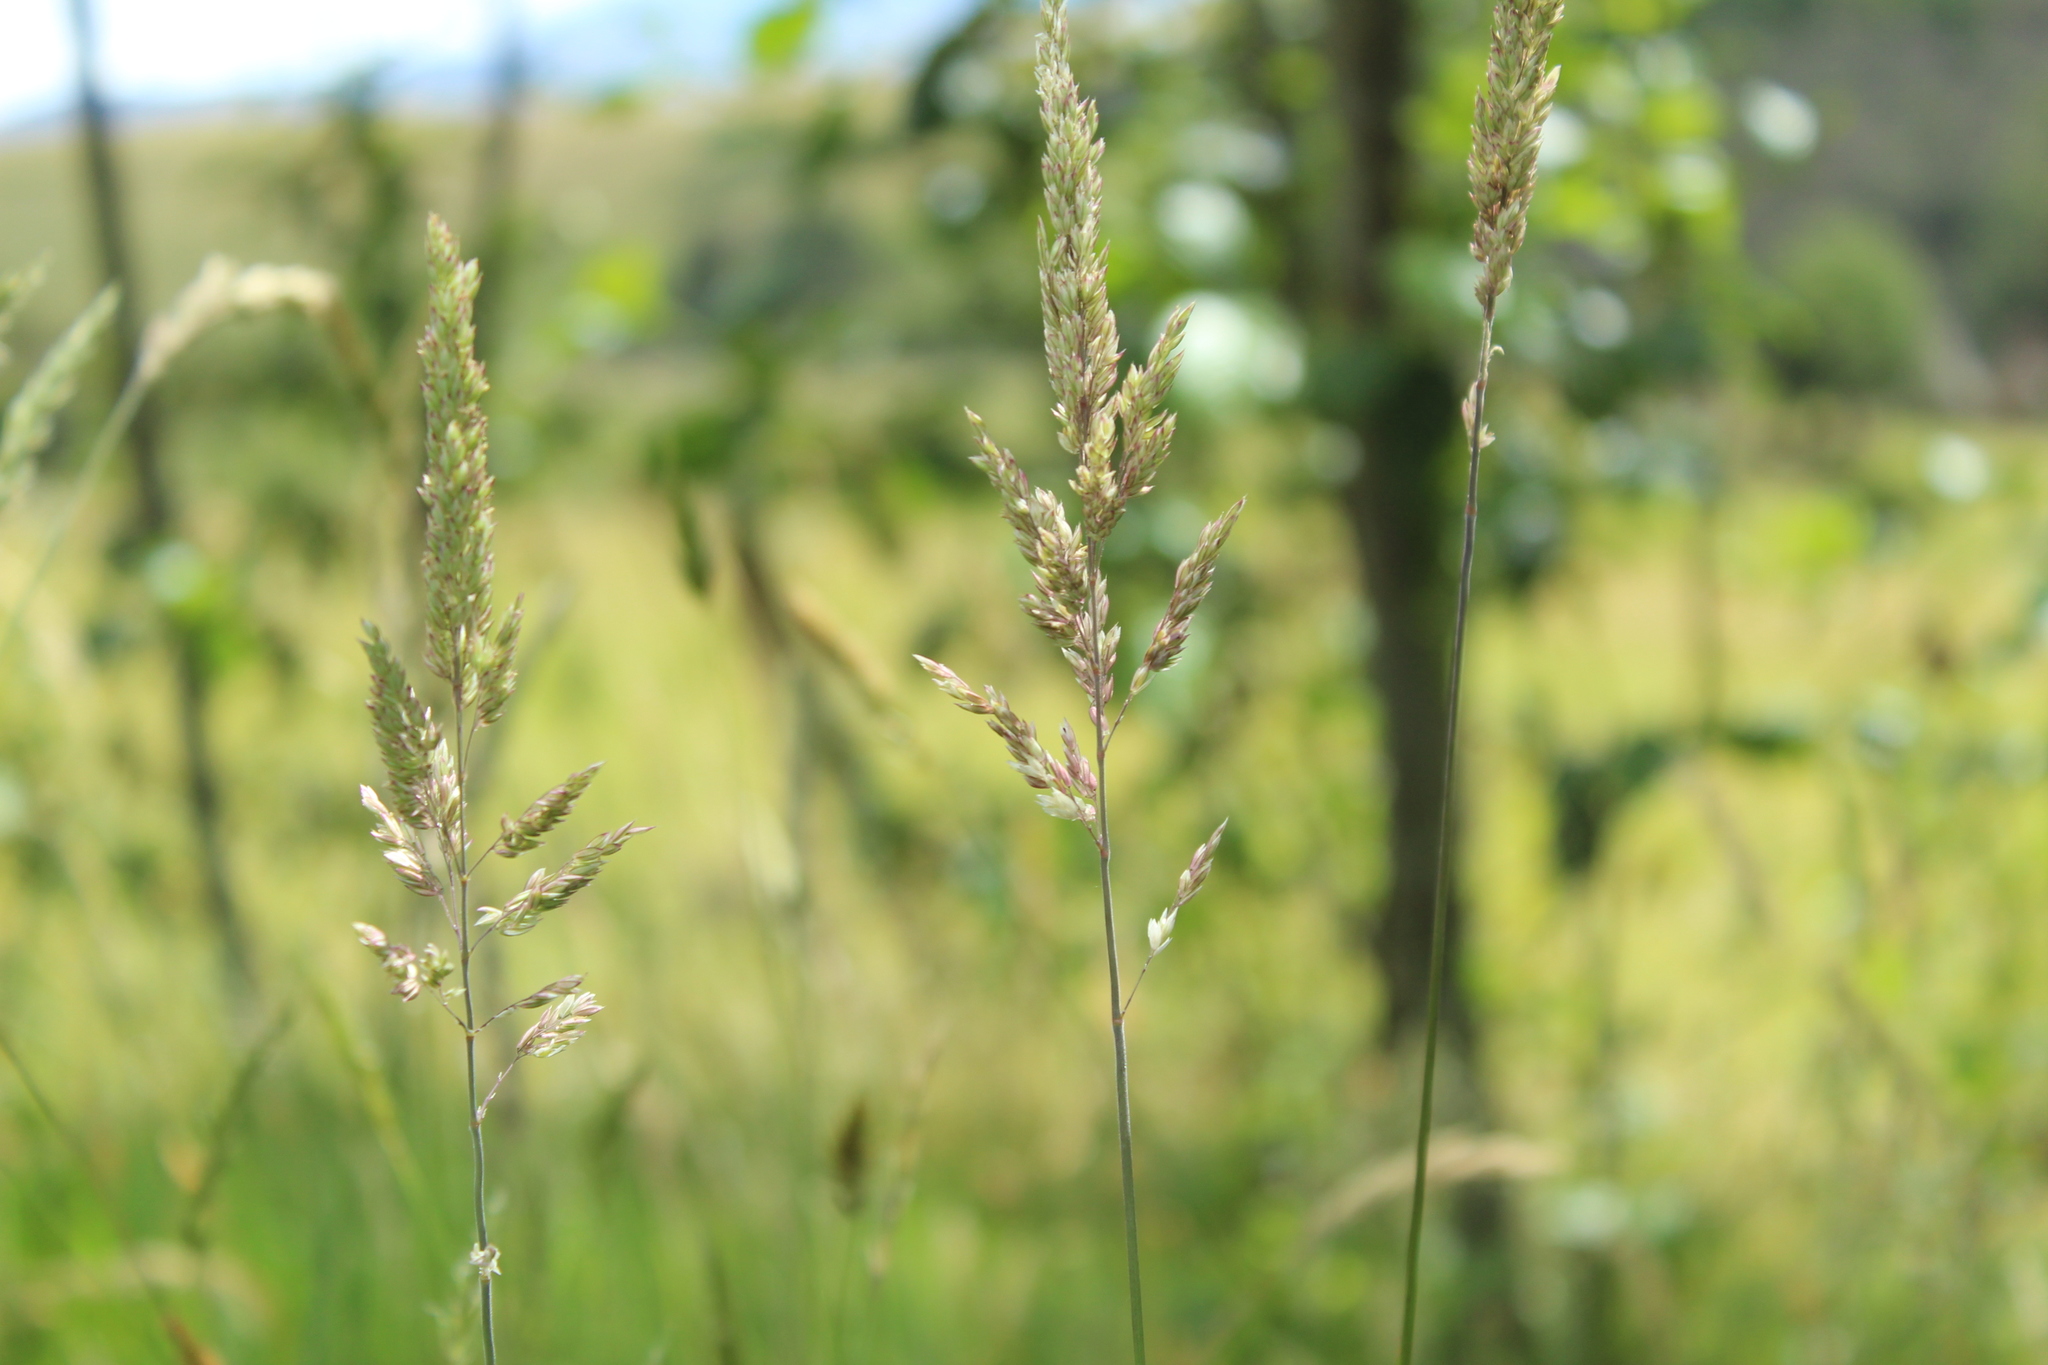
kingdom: Plantae
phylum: Tracheophyta
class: Liliopsida
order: Poales
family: Poaceae
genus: Holcus
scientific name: Holcus lanatus
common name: Yorkshire-fog
